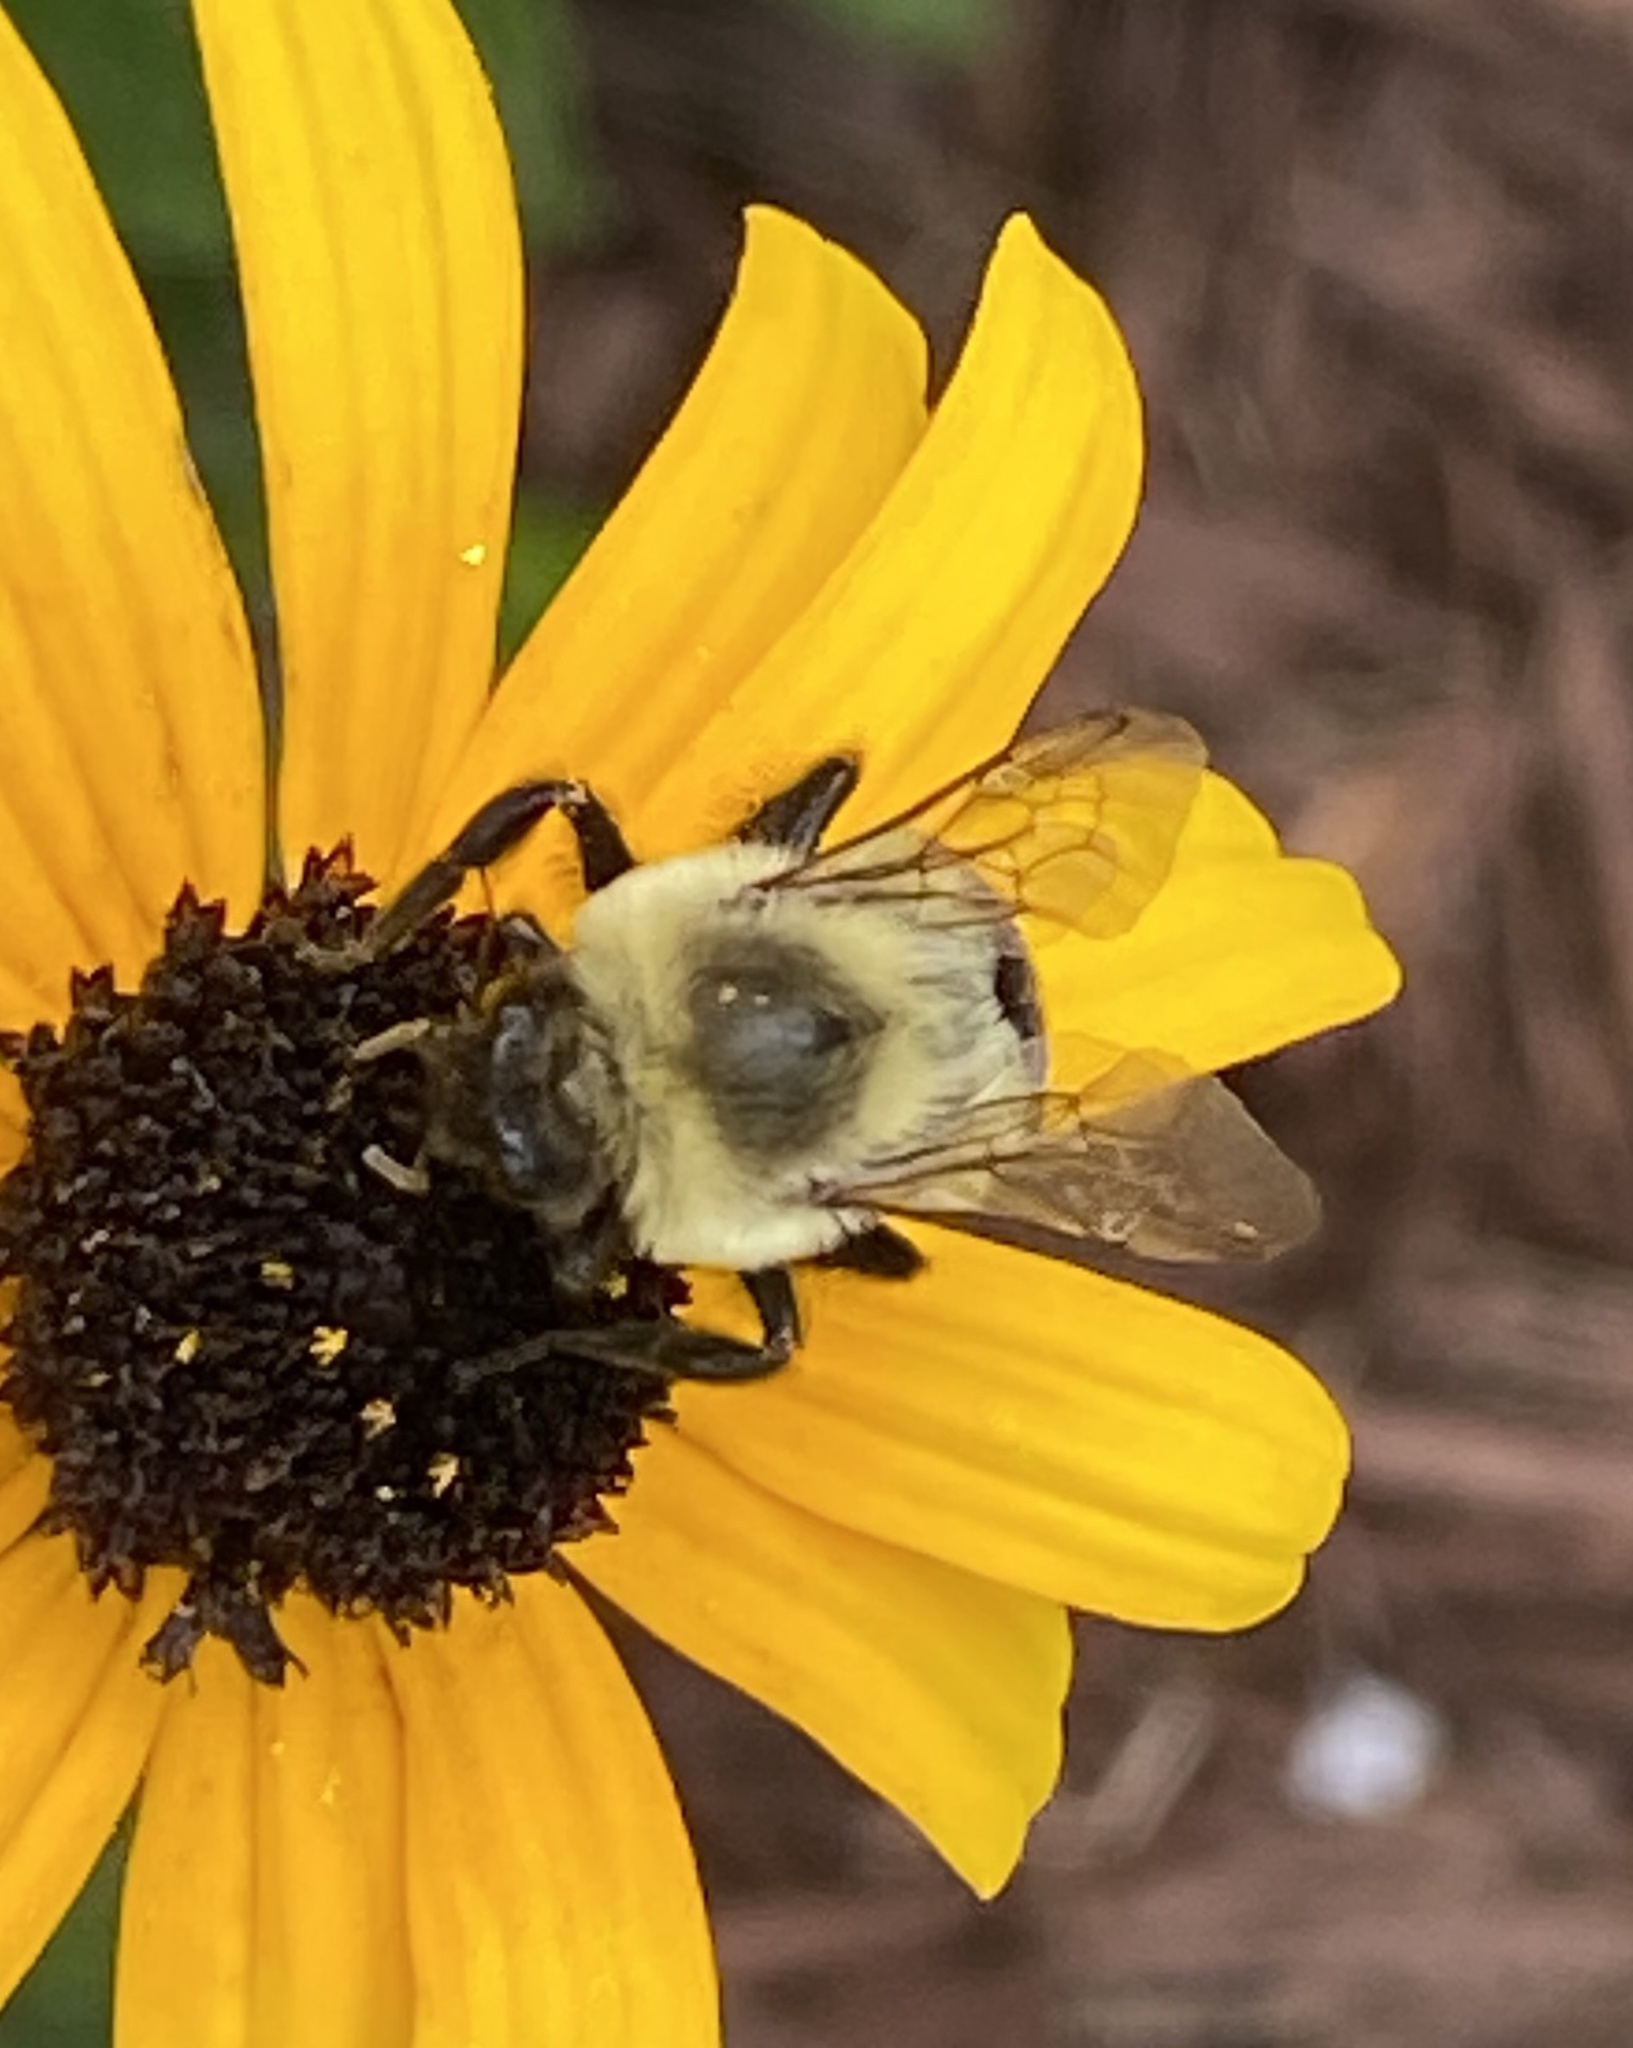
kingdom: Animalia
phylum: Arthropoda
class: Insecta
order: Hymenoptera
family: Apidae
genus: Bombus
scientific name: Bombus impatiens
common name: Common eastern bumble bee
